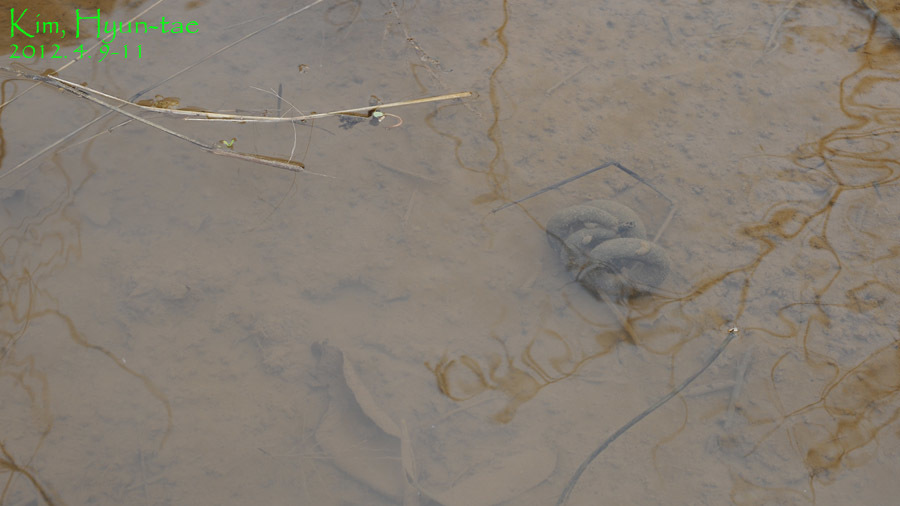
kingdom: Animalia
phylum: Chordata
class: Amphibia
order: Caudata
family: Hynobiidae
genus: Hynobius
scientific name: Hynobius leechii
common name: Gensan salamander
